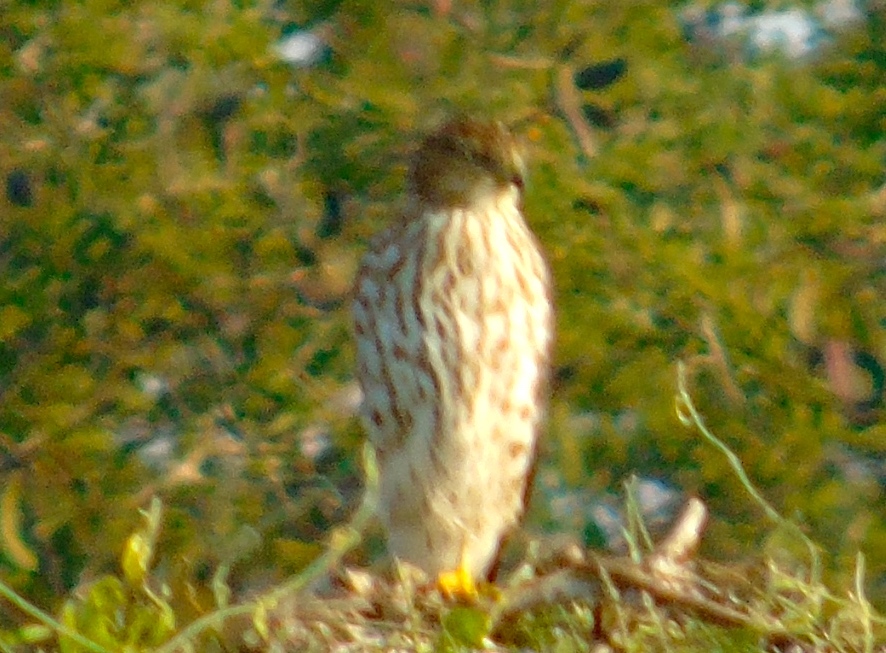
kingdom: Animalia
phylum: Chordata
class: Aves
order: Accipitriformes
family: Accipitridae
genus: Accipiter
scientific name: Accipiter
